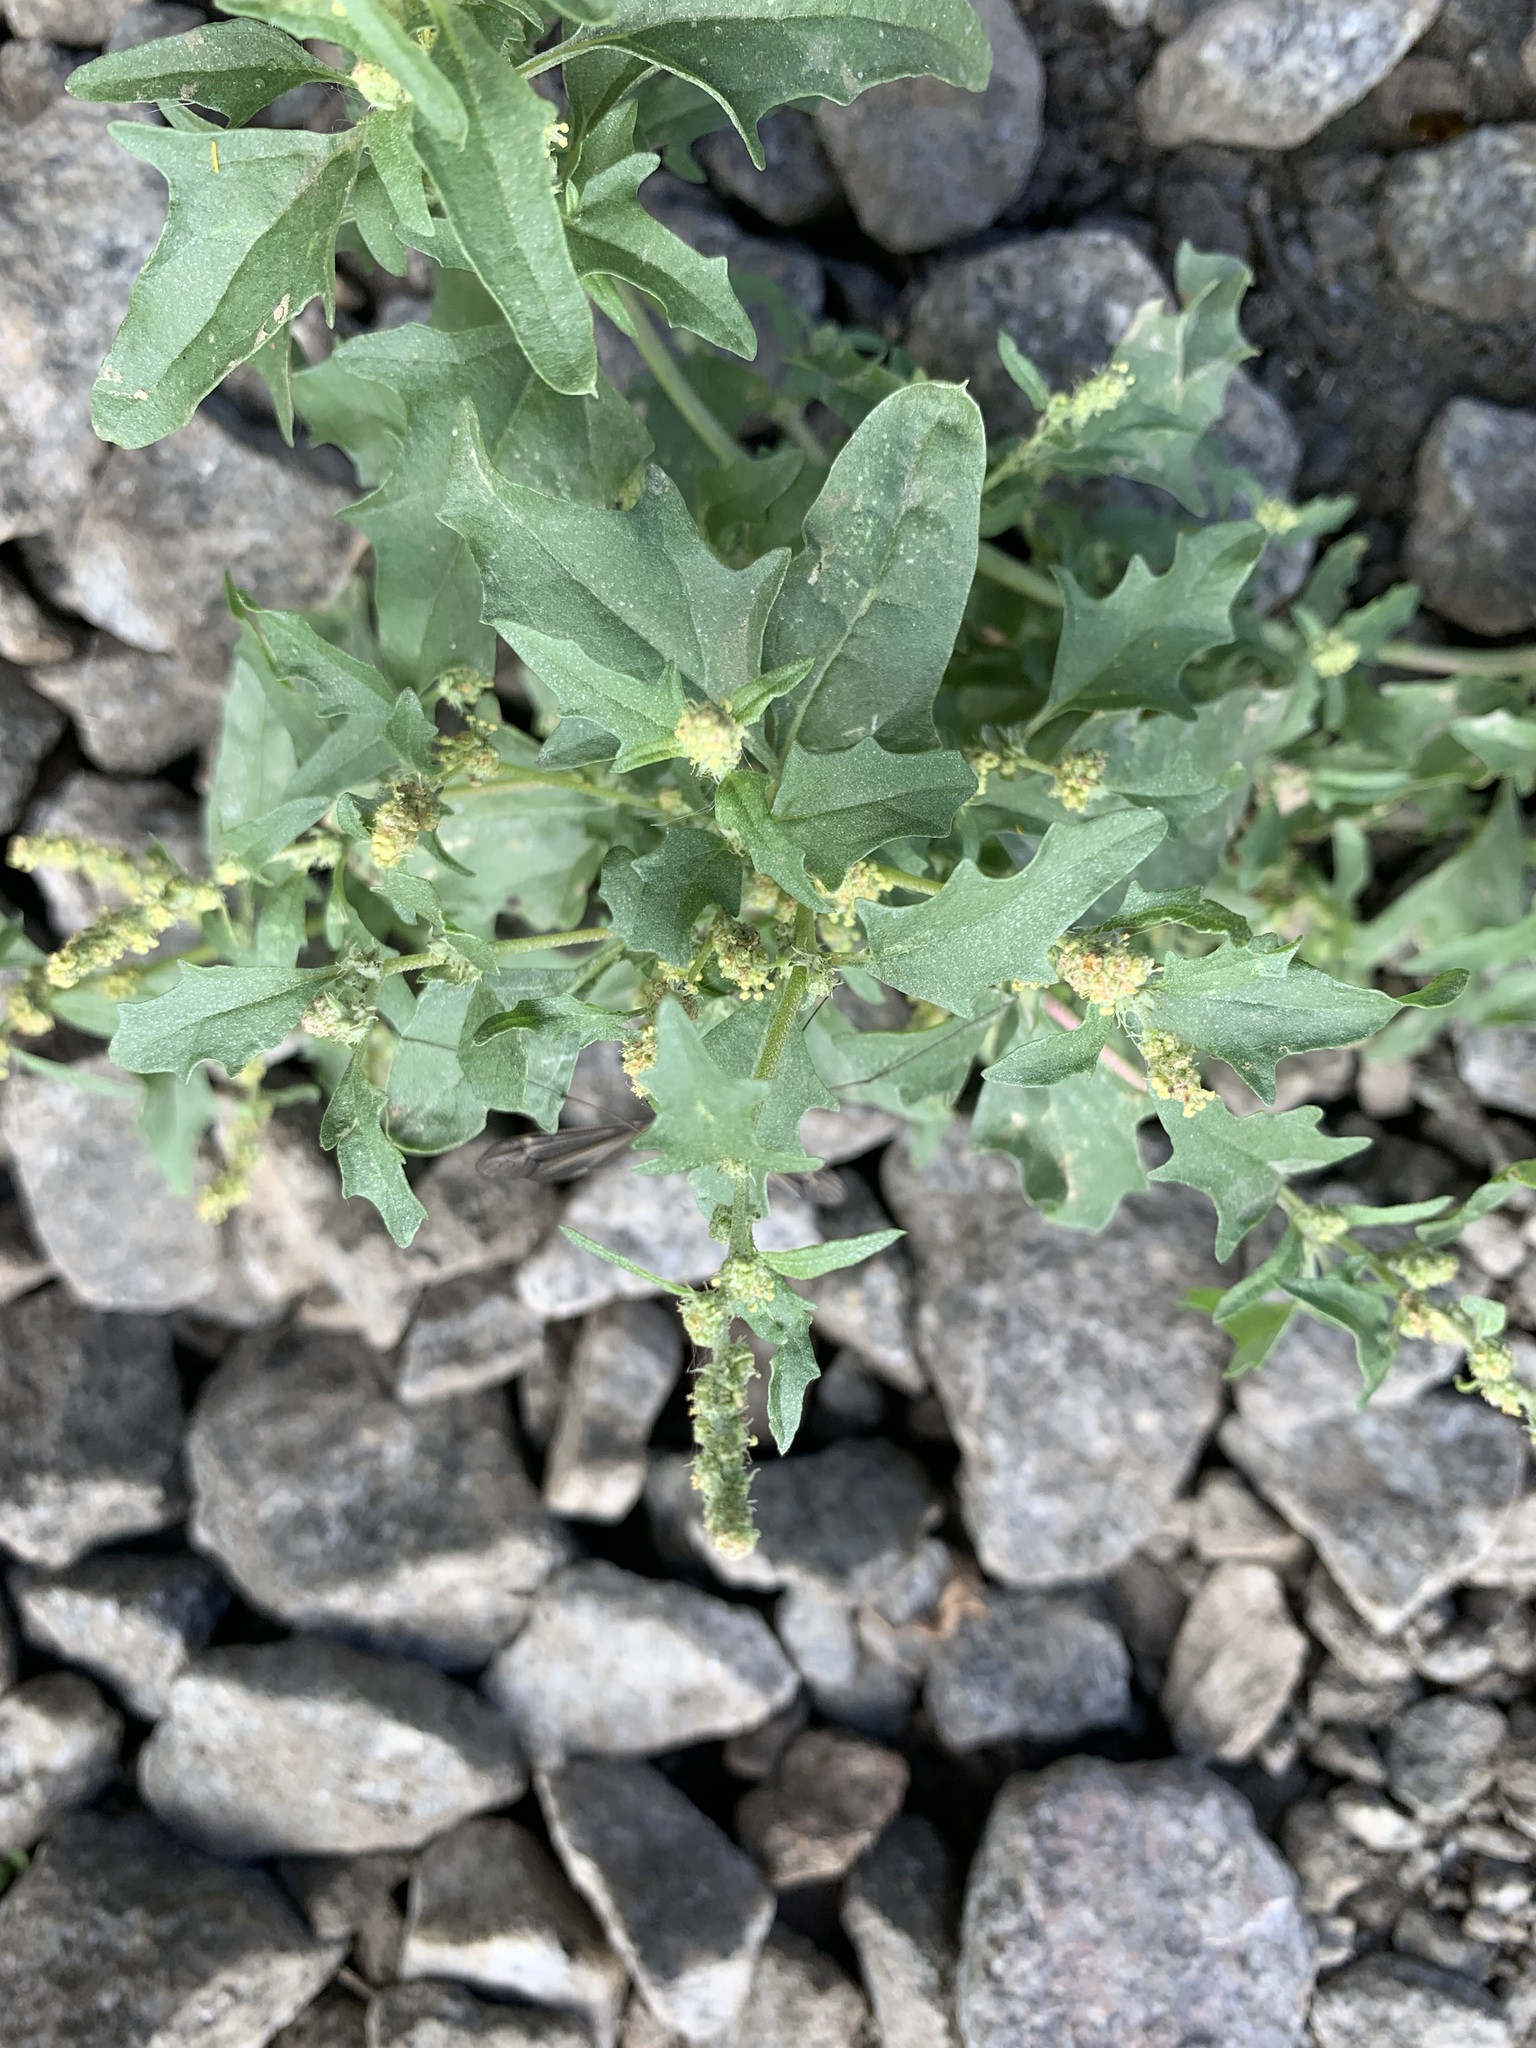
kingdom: Plantae
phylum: Tracheophyta
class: Magnoliopsida
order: Caryophyllales
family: Amaranthaceae
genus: Atriplex
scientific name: Atriplex tatarica
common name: Tatarian orache
